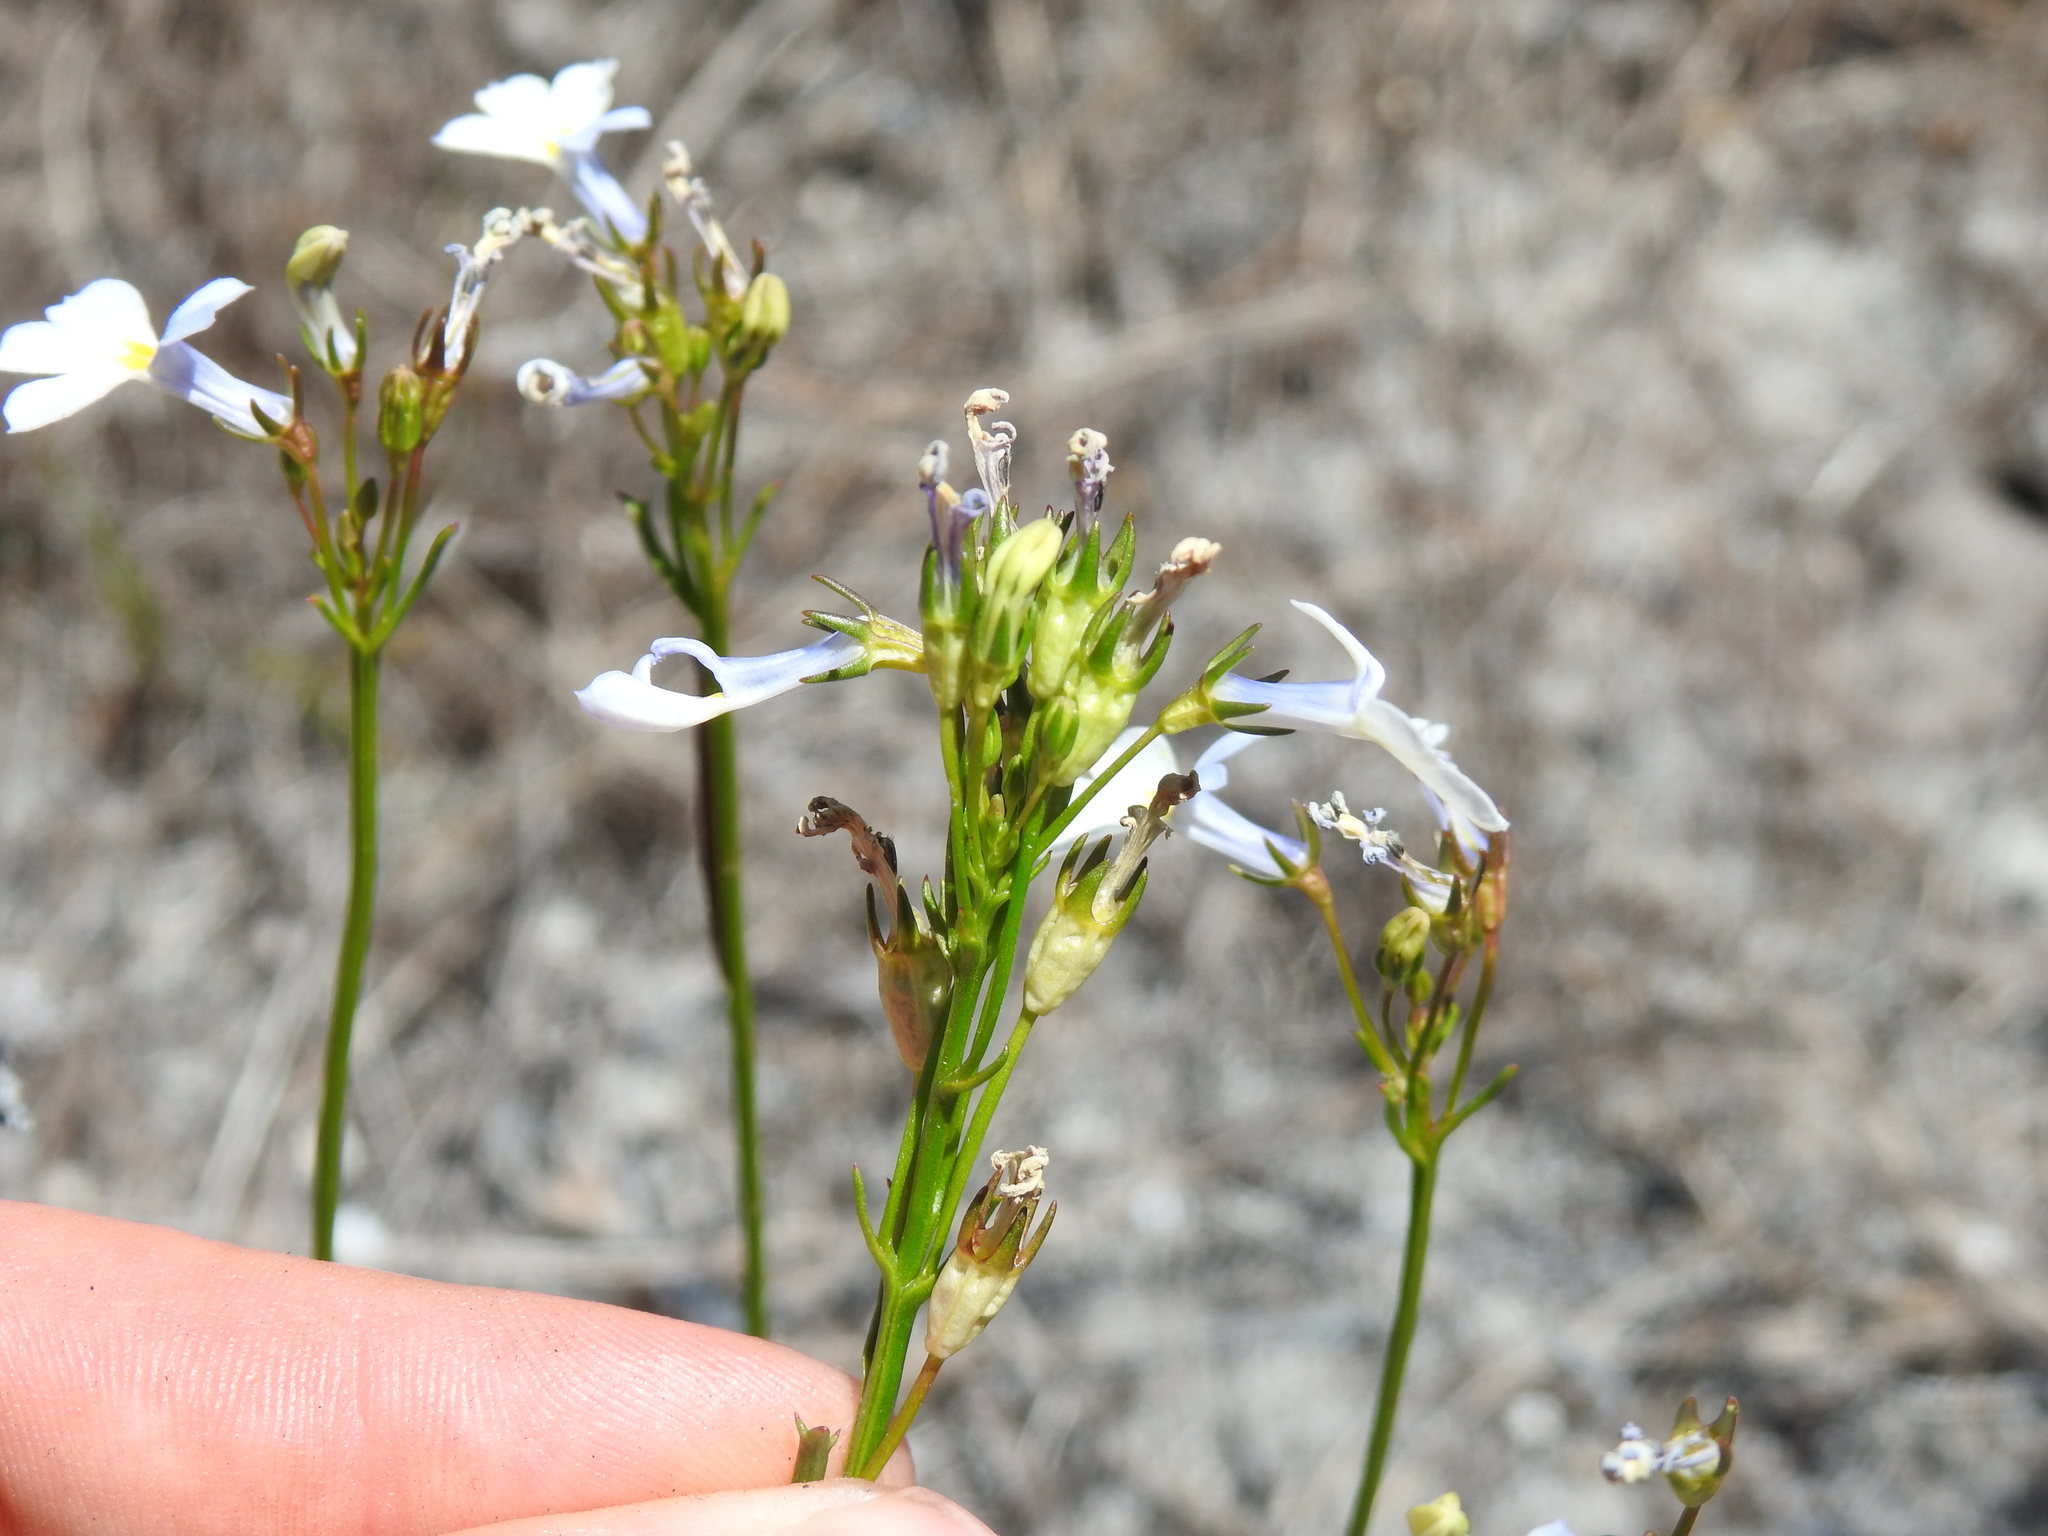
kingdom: Plantae
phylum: Tracheophyta
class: Magnoliopsida
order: Asterales
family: Campanulaceae
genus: Lobelia
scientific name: Lobelia comosa
